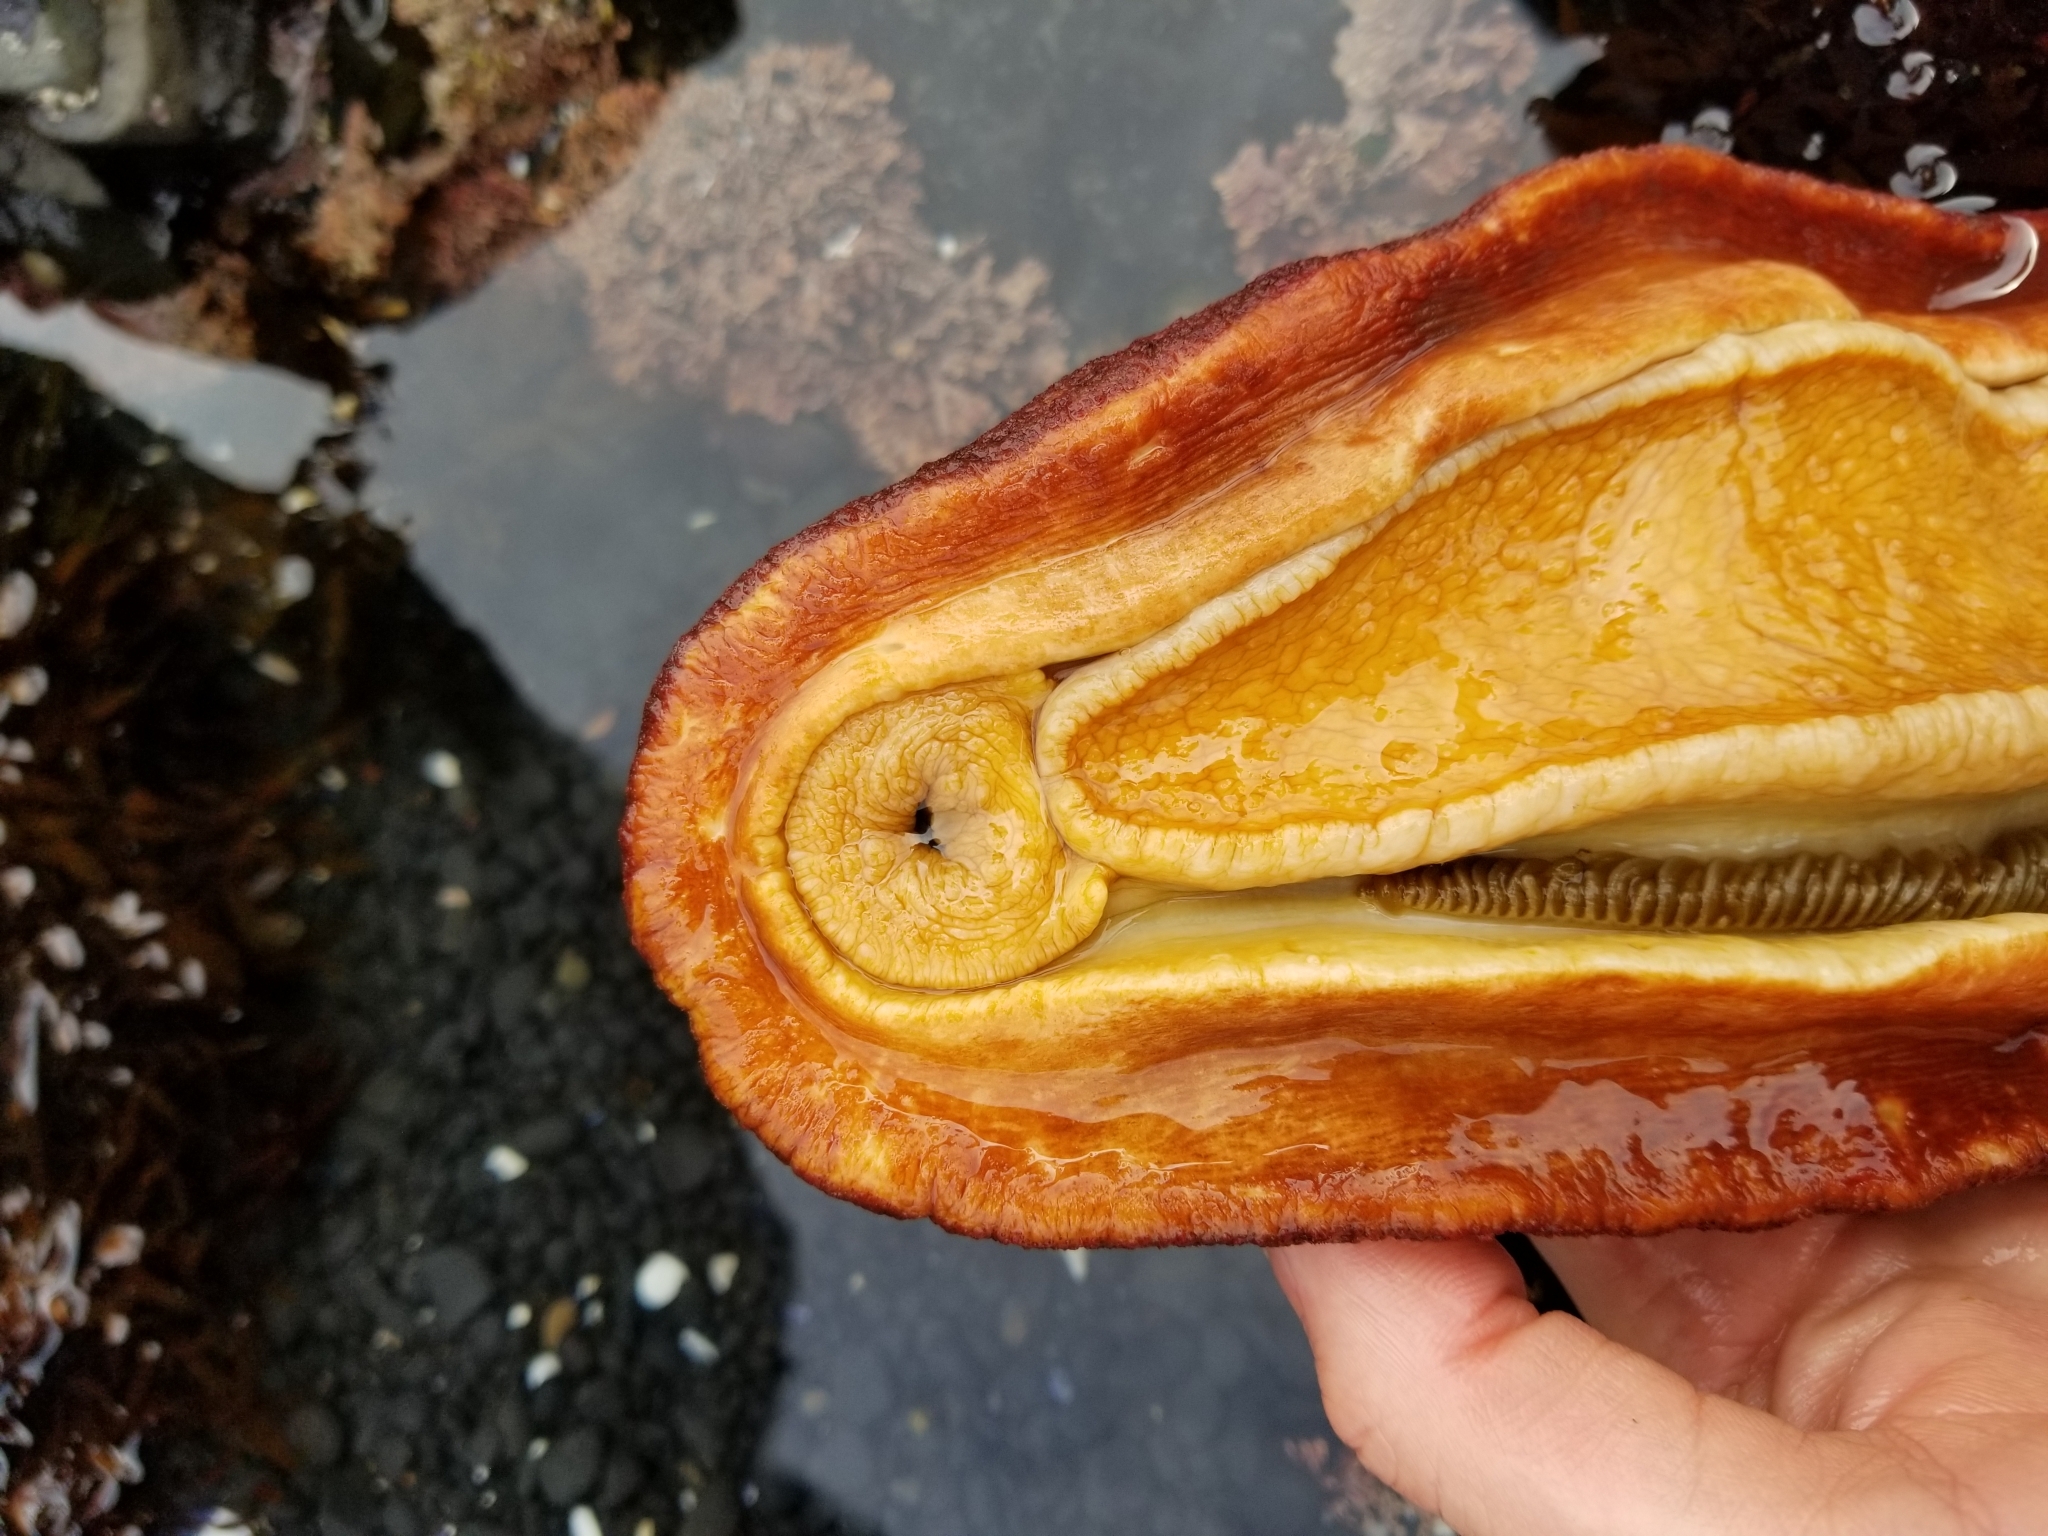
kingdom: Animalia
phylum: Mollusca
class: Polyplacophora
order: Chitonida
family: Acanthochitonidae
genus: Cryptochiton
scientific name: Cryptochiton stelleri
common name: Giant pacific chiton
